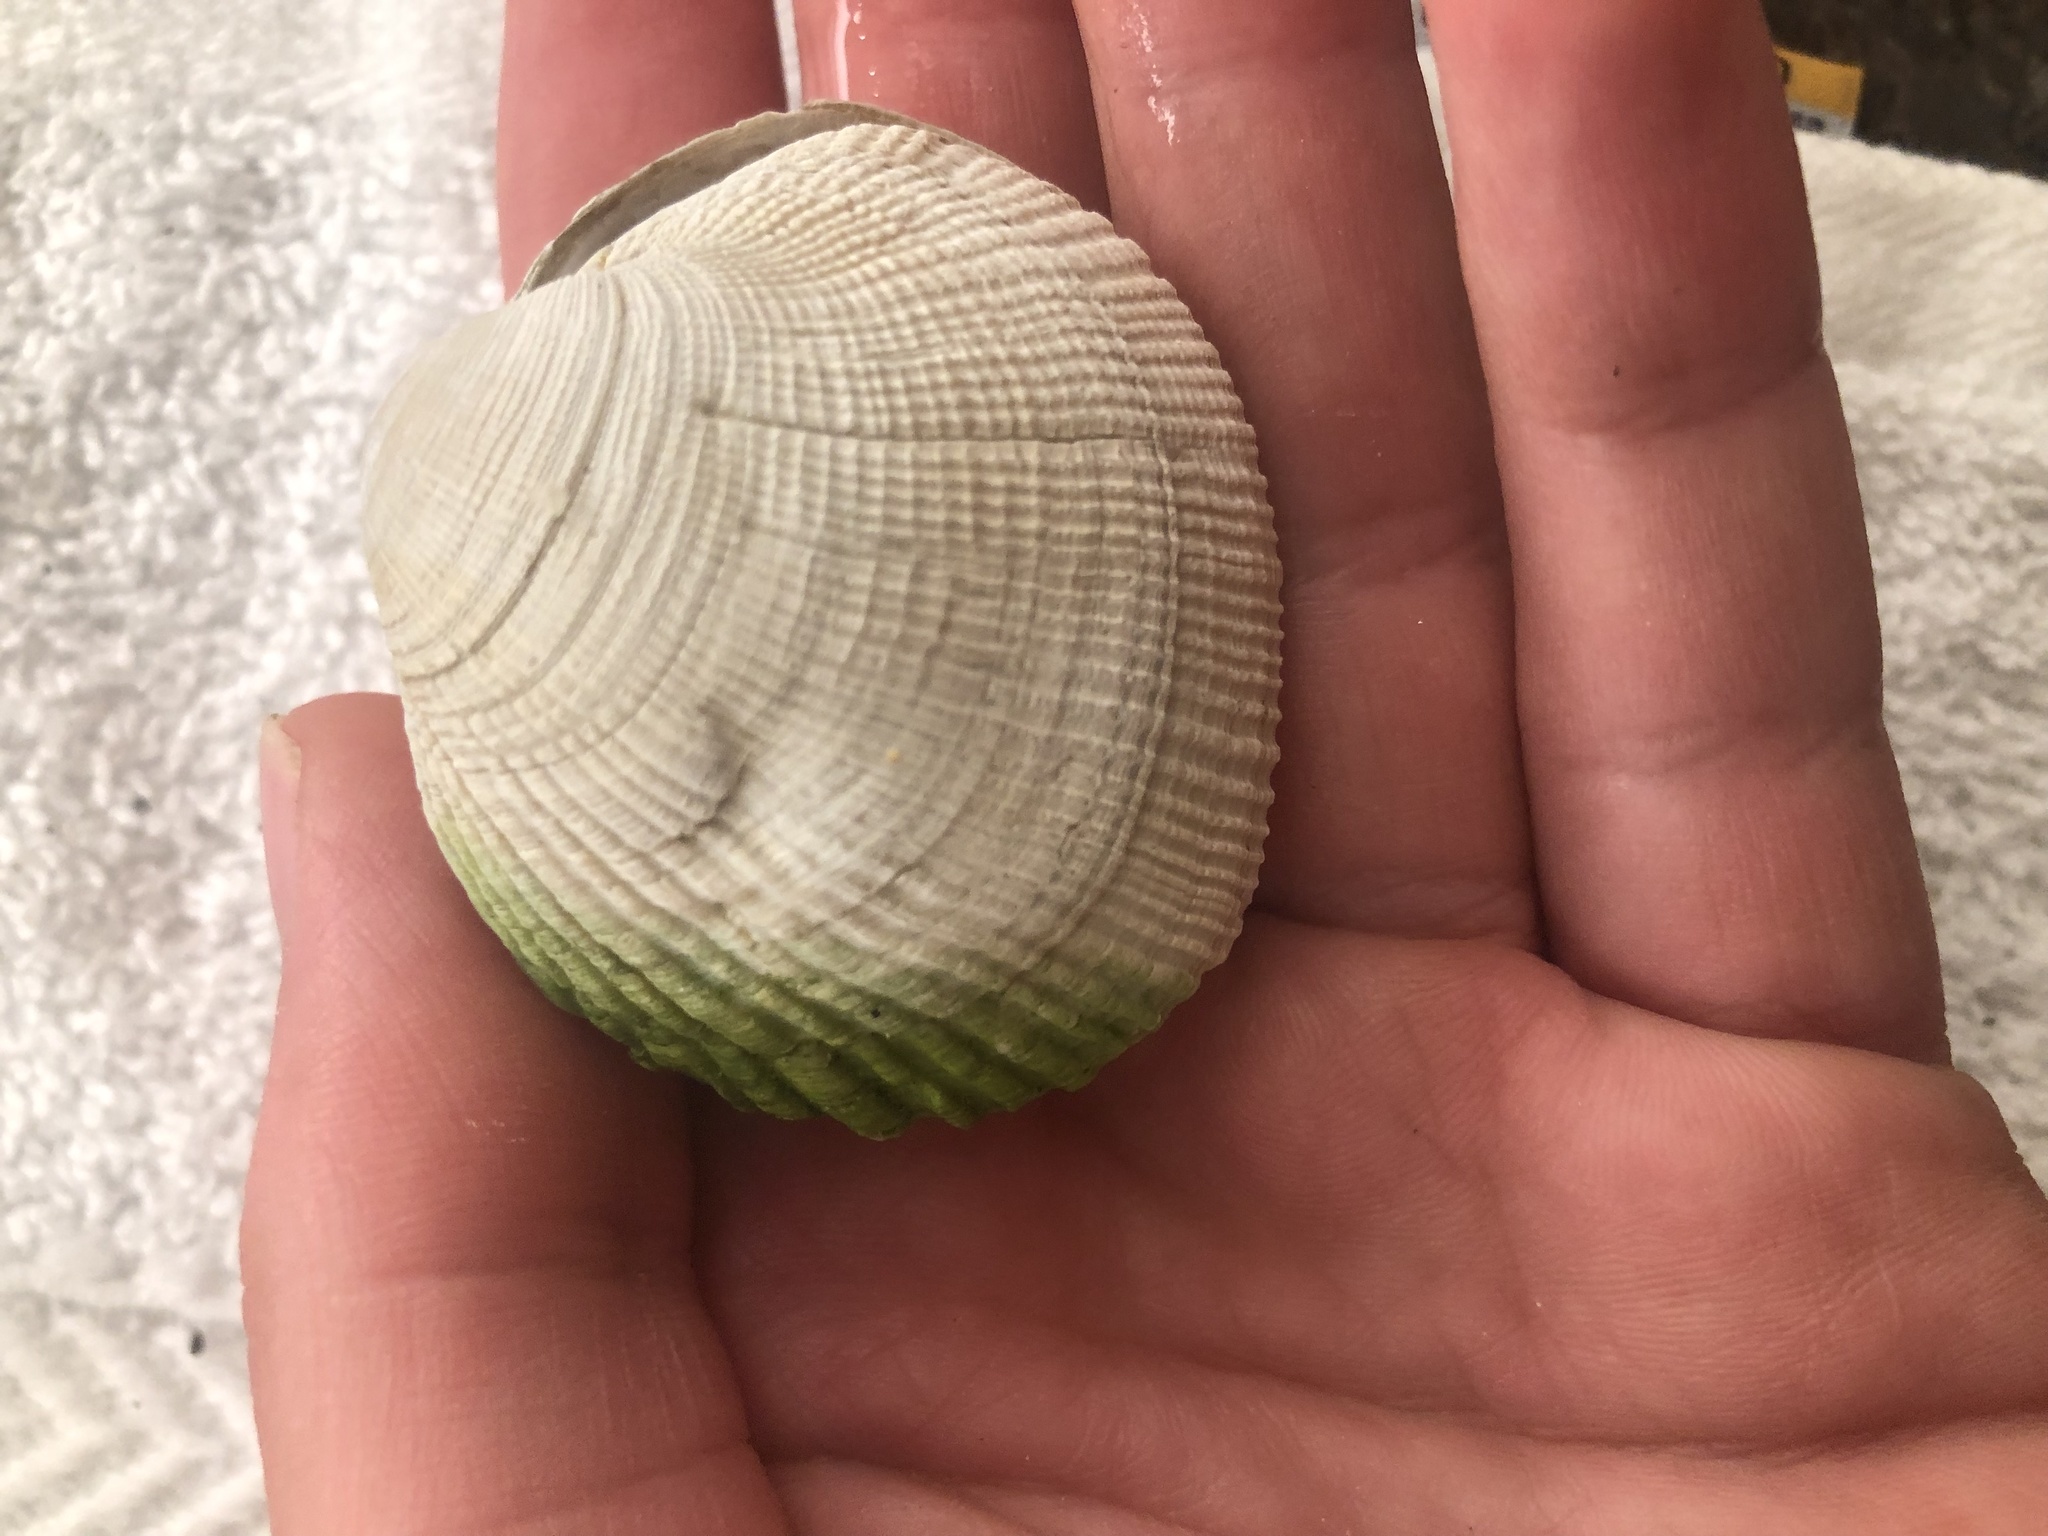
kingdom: Animalia
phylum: Mollusca
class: Bivalvia
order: Venerida
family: Veneridae
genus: Leukoma
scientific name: Leukoma staminea
